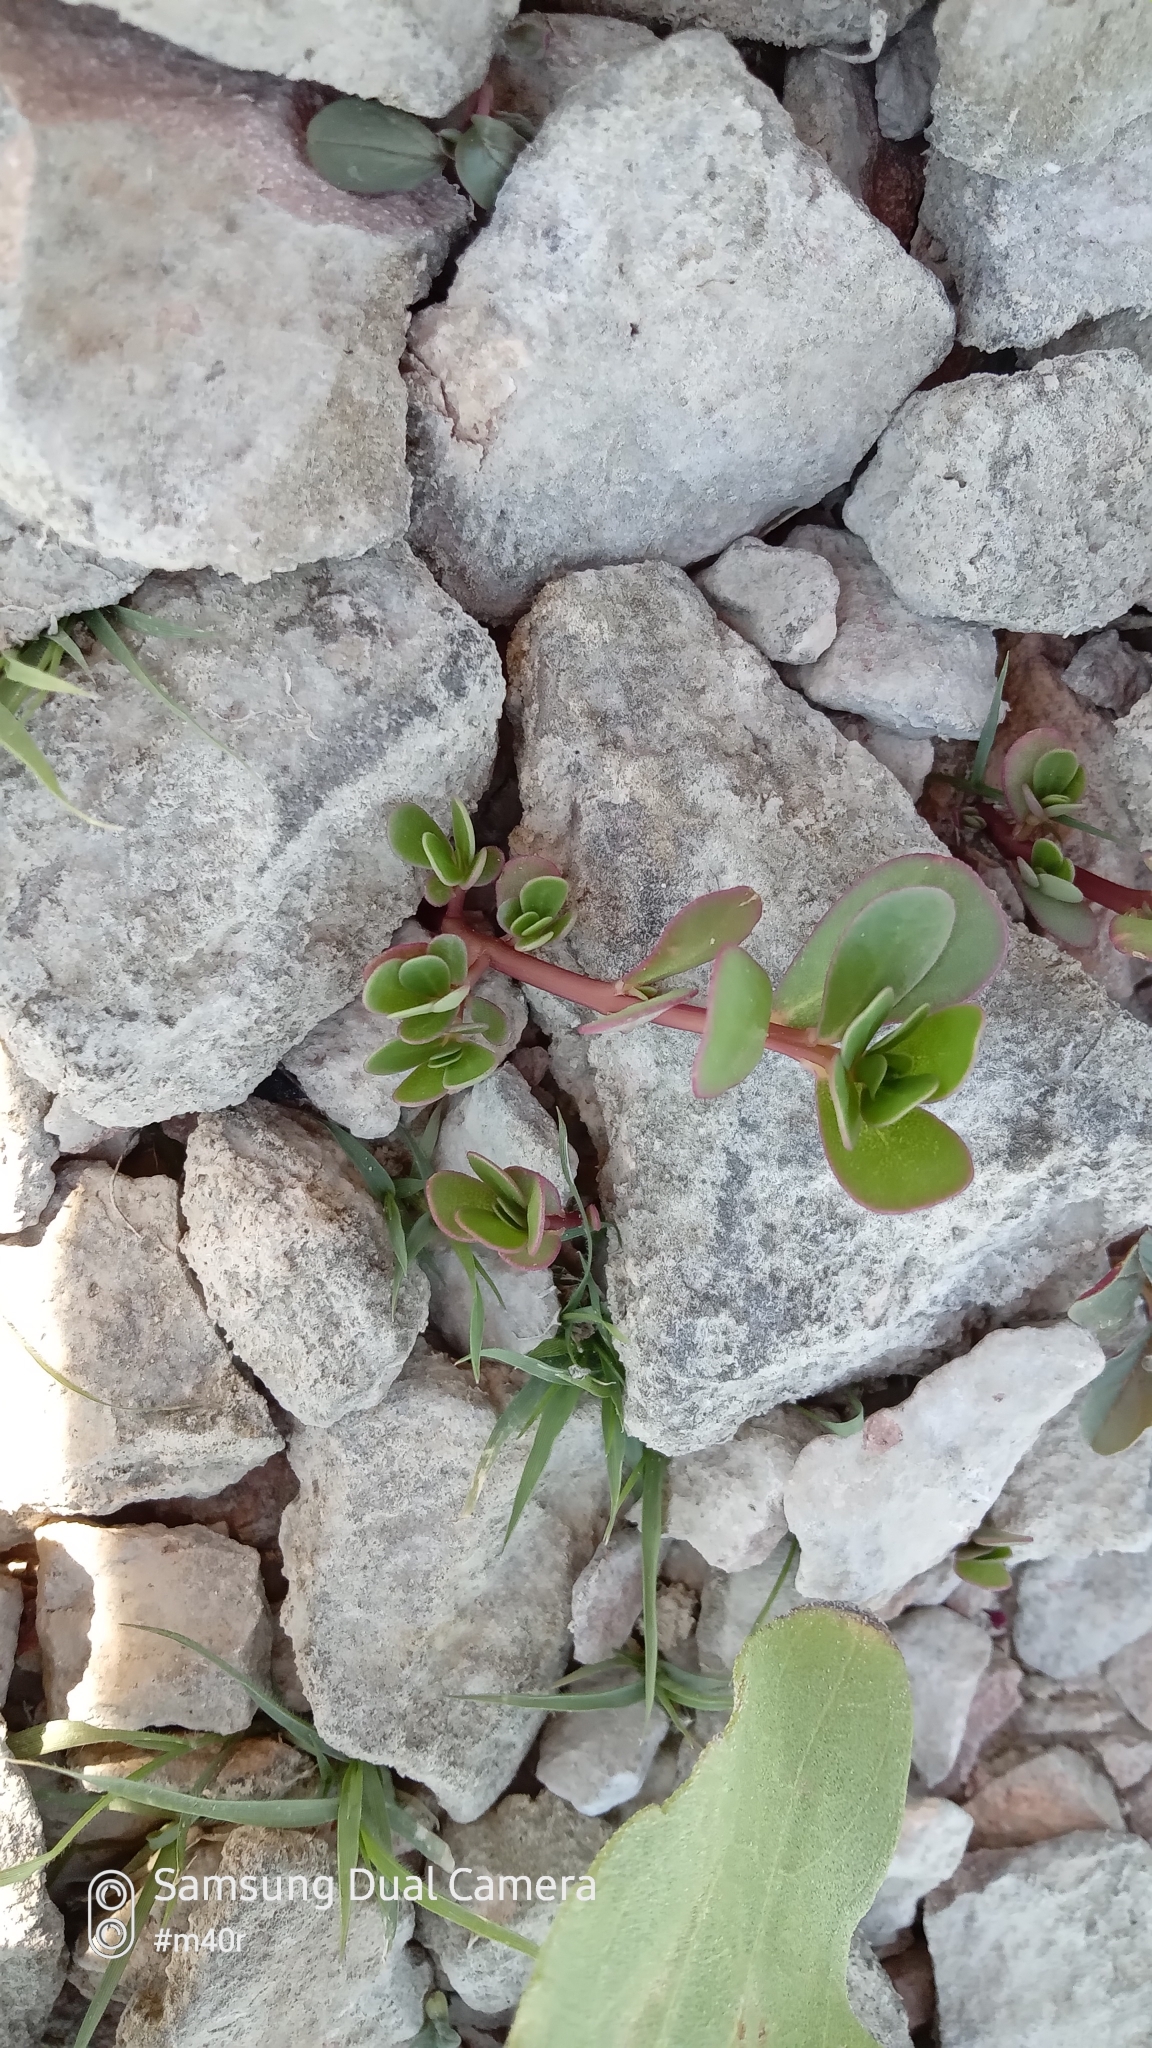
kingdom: Plantae
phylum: Tracheophyta
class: Magnoliopsida
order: Caryophyllales
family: Portulacaceae
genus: Portulaca
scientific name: Portulaca oleracea
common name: Common purslane
